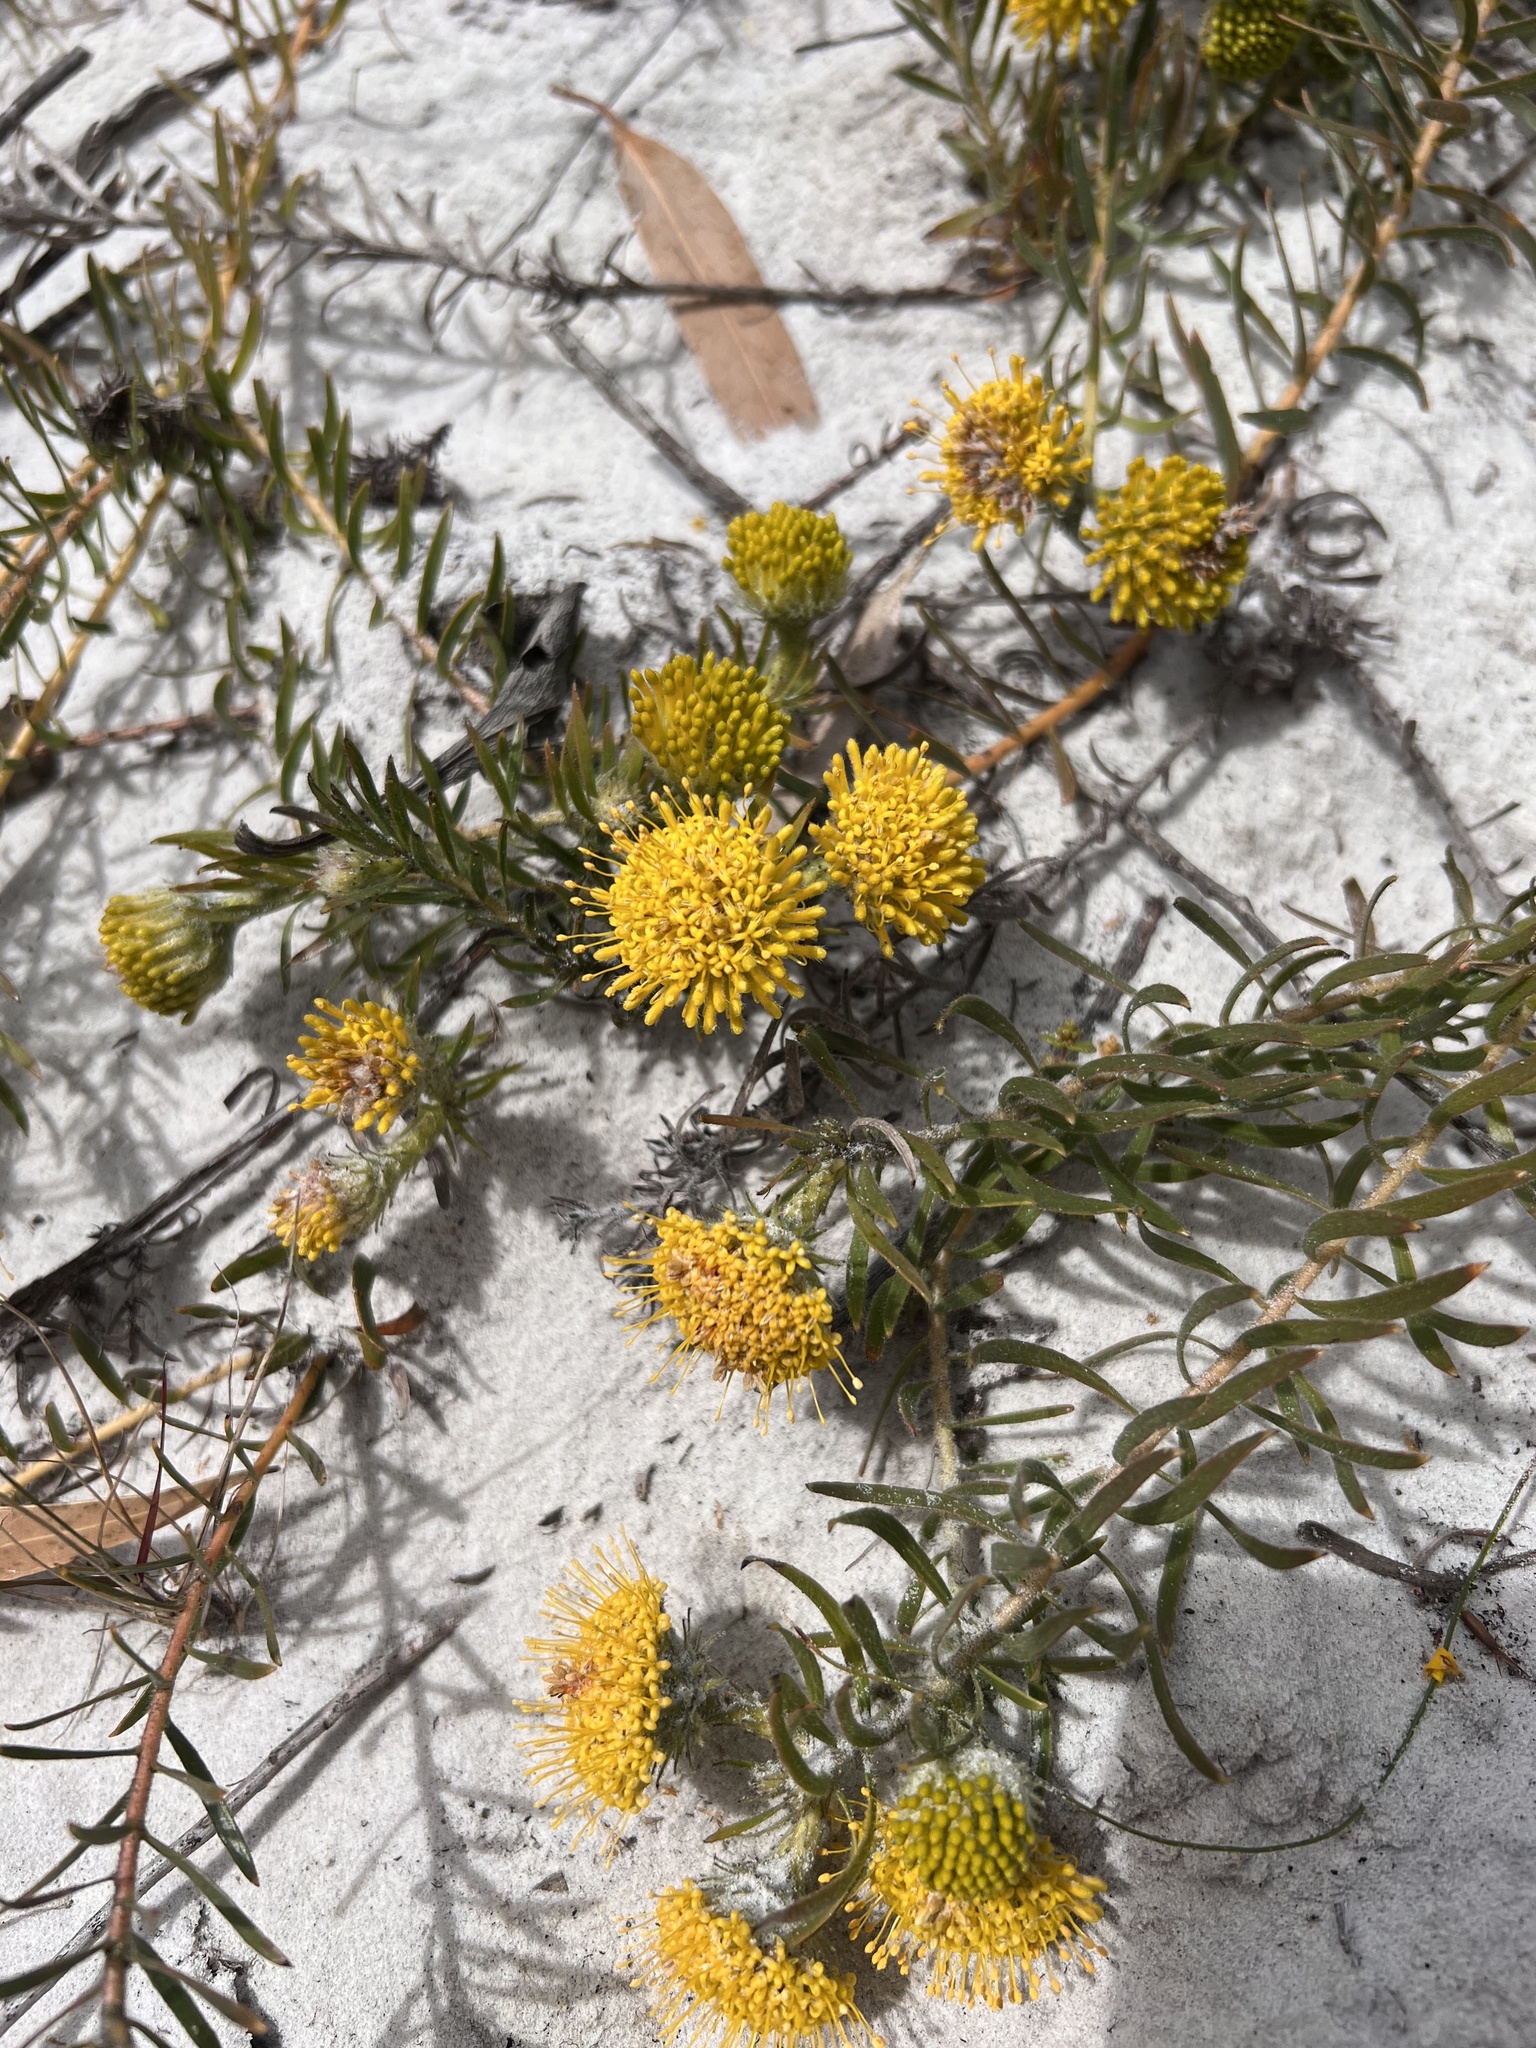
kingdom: Plantae
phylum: Tracheophyta
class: Magnoliopsida
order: Proteales
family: Proteaceae
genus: Leucospermum
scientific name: Leucospermum prostratum
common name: Yellow-trailing pincushion
